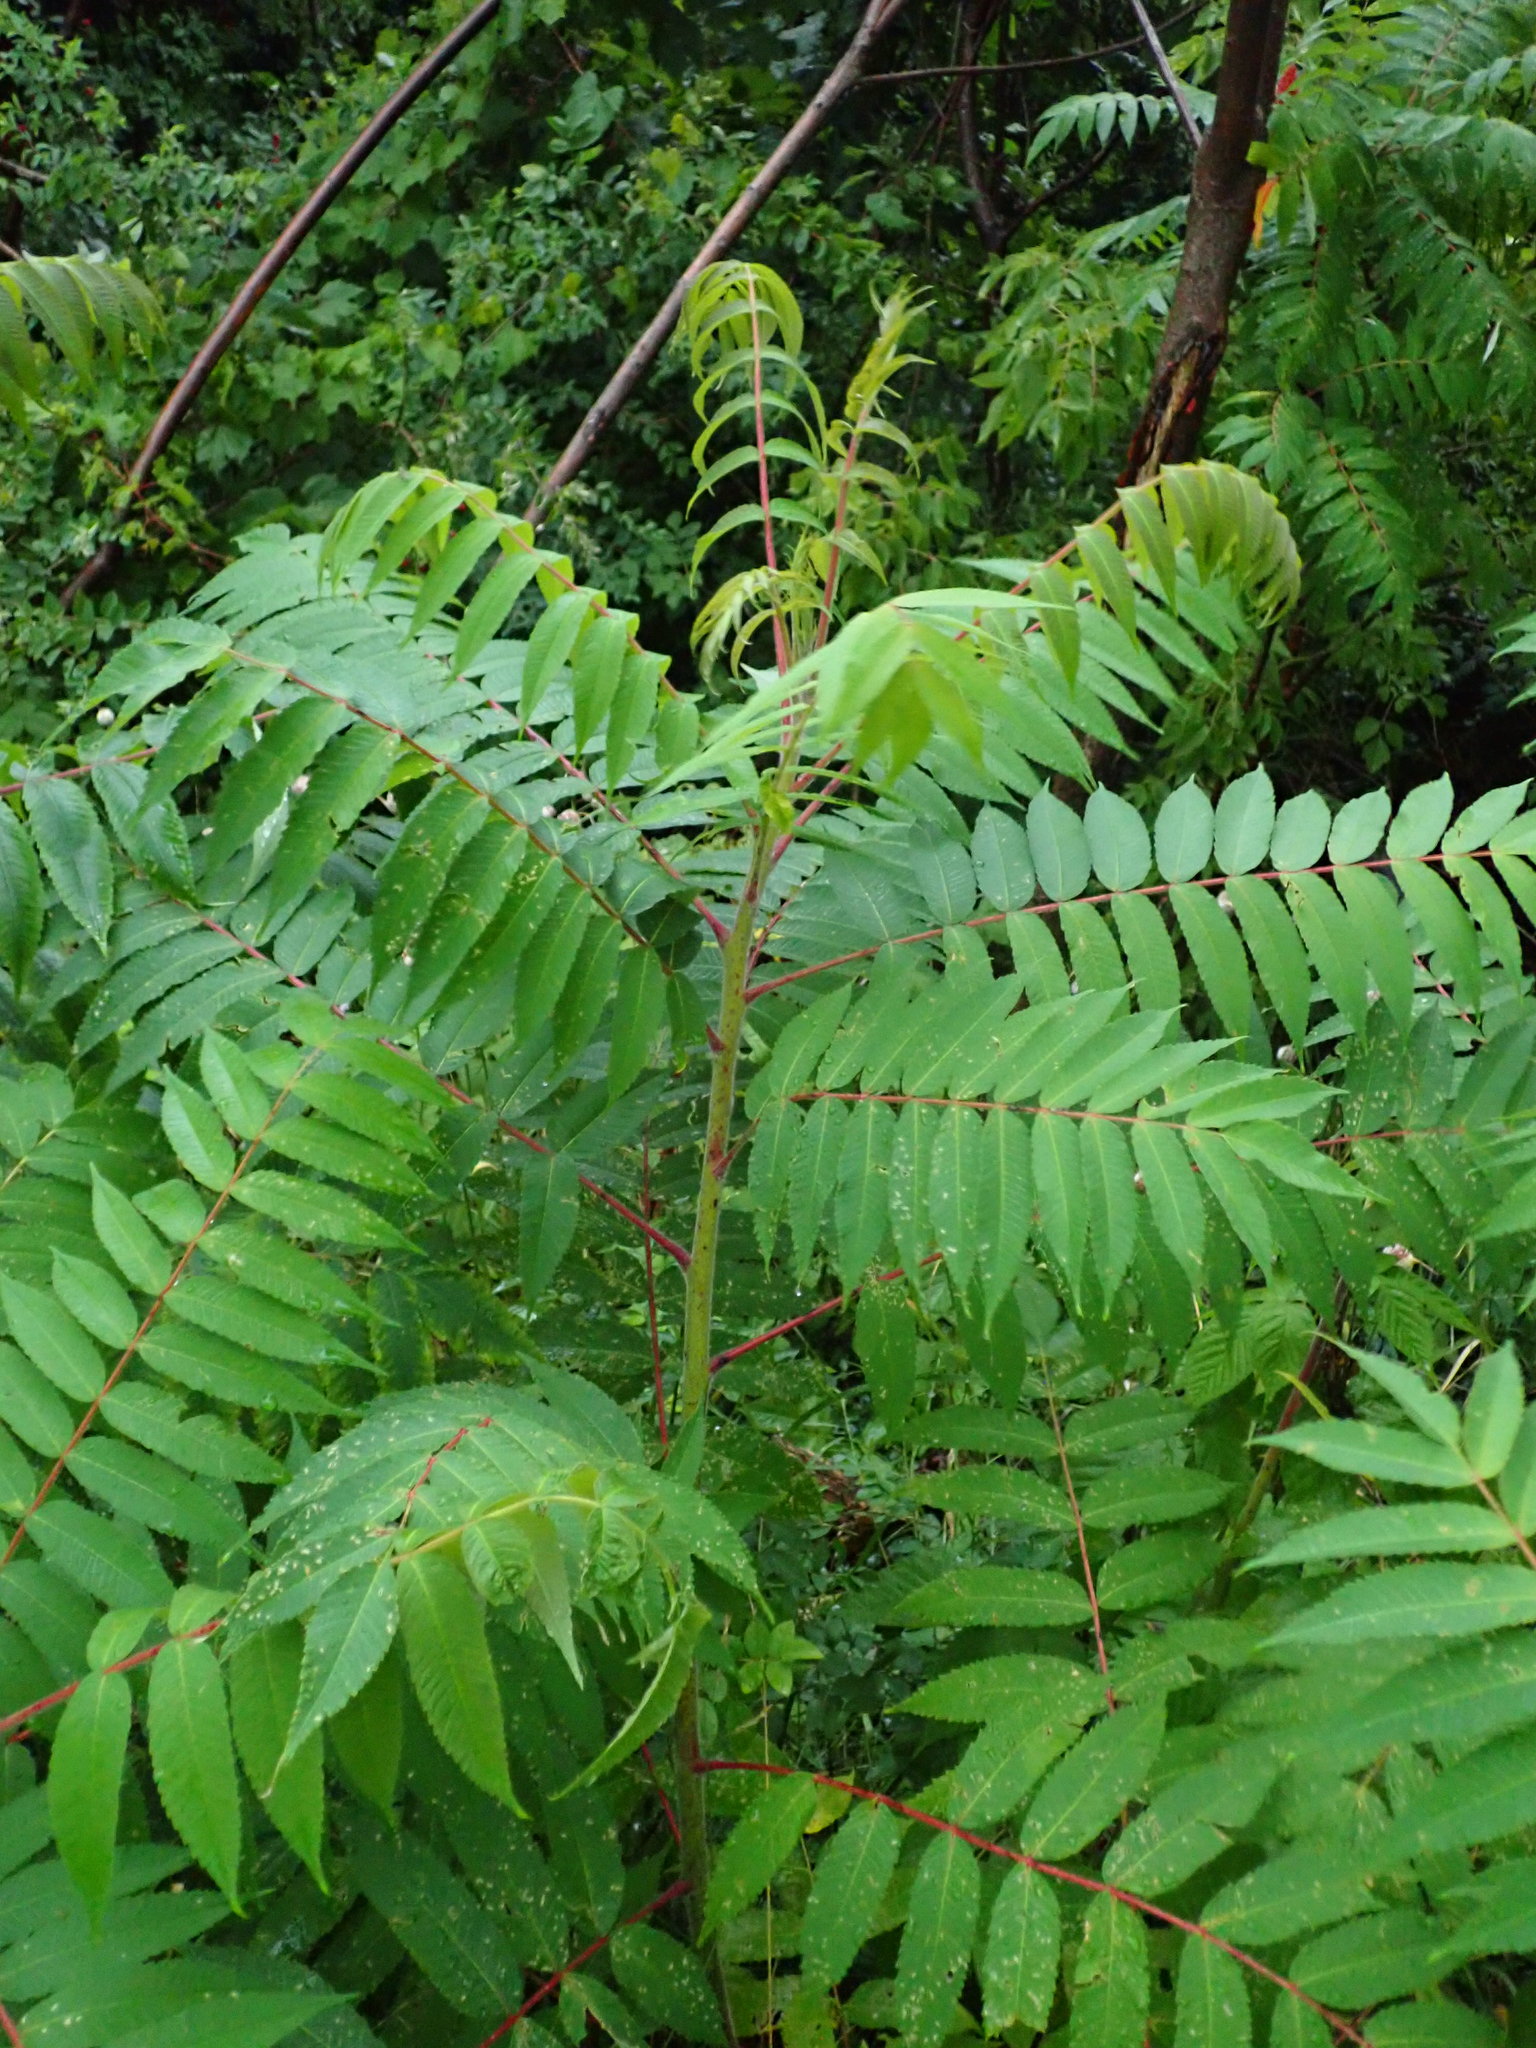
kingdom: Plantae
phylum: Tracheophyta
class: Magnoliopsida
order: Sapindales
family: Anacardiaceae
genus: Rhus
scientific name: Rhus typhina
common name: Staghorn sumac
